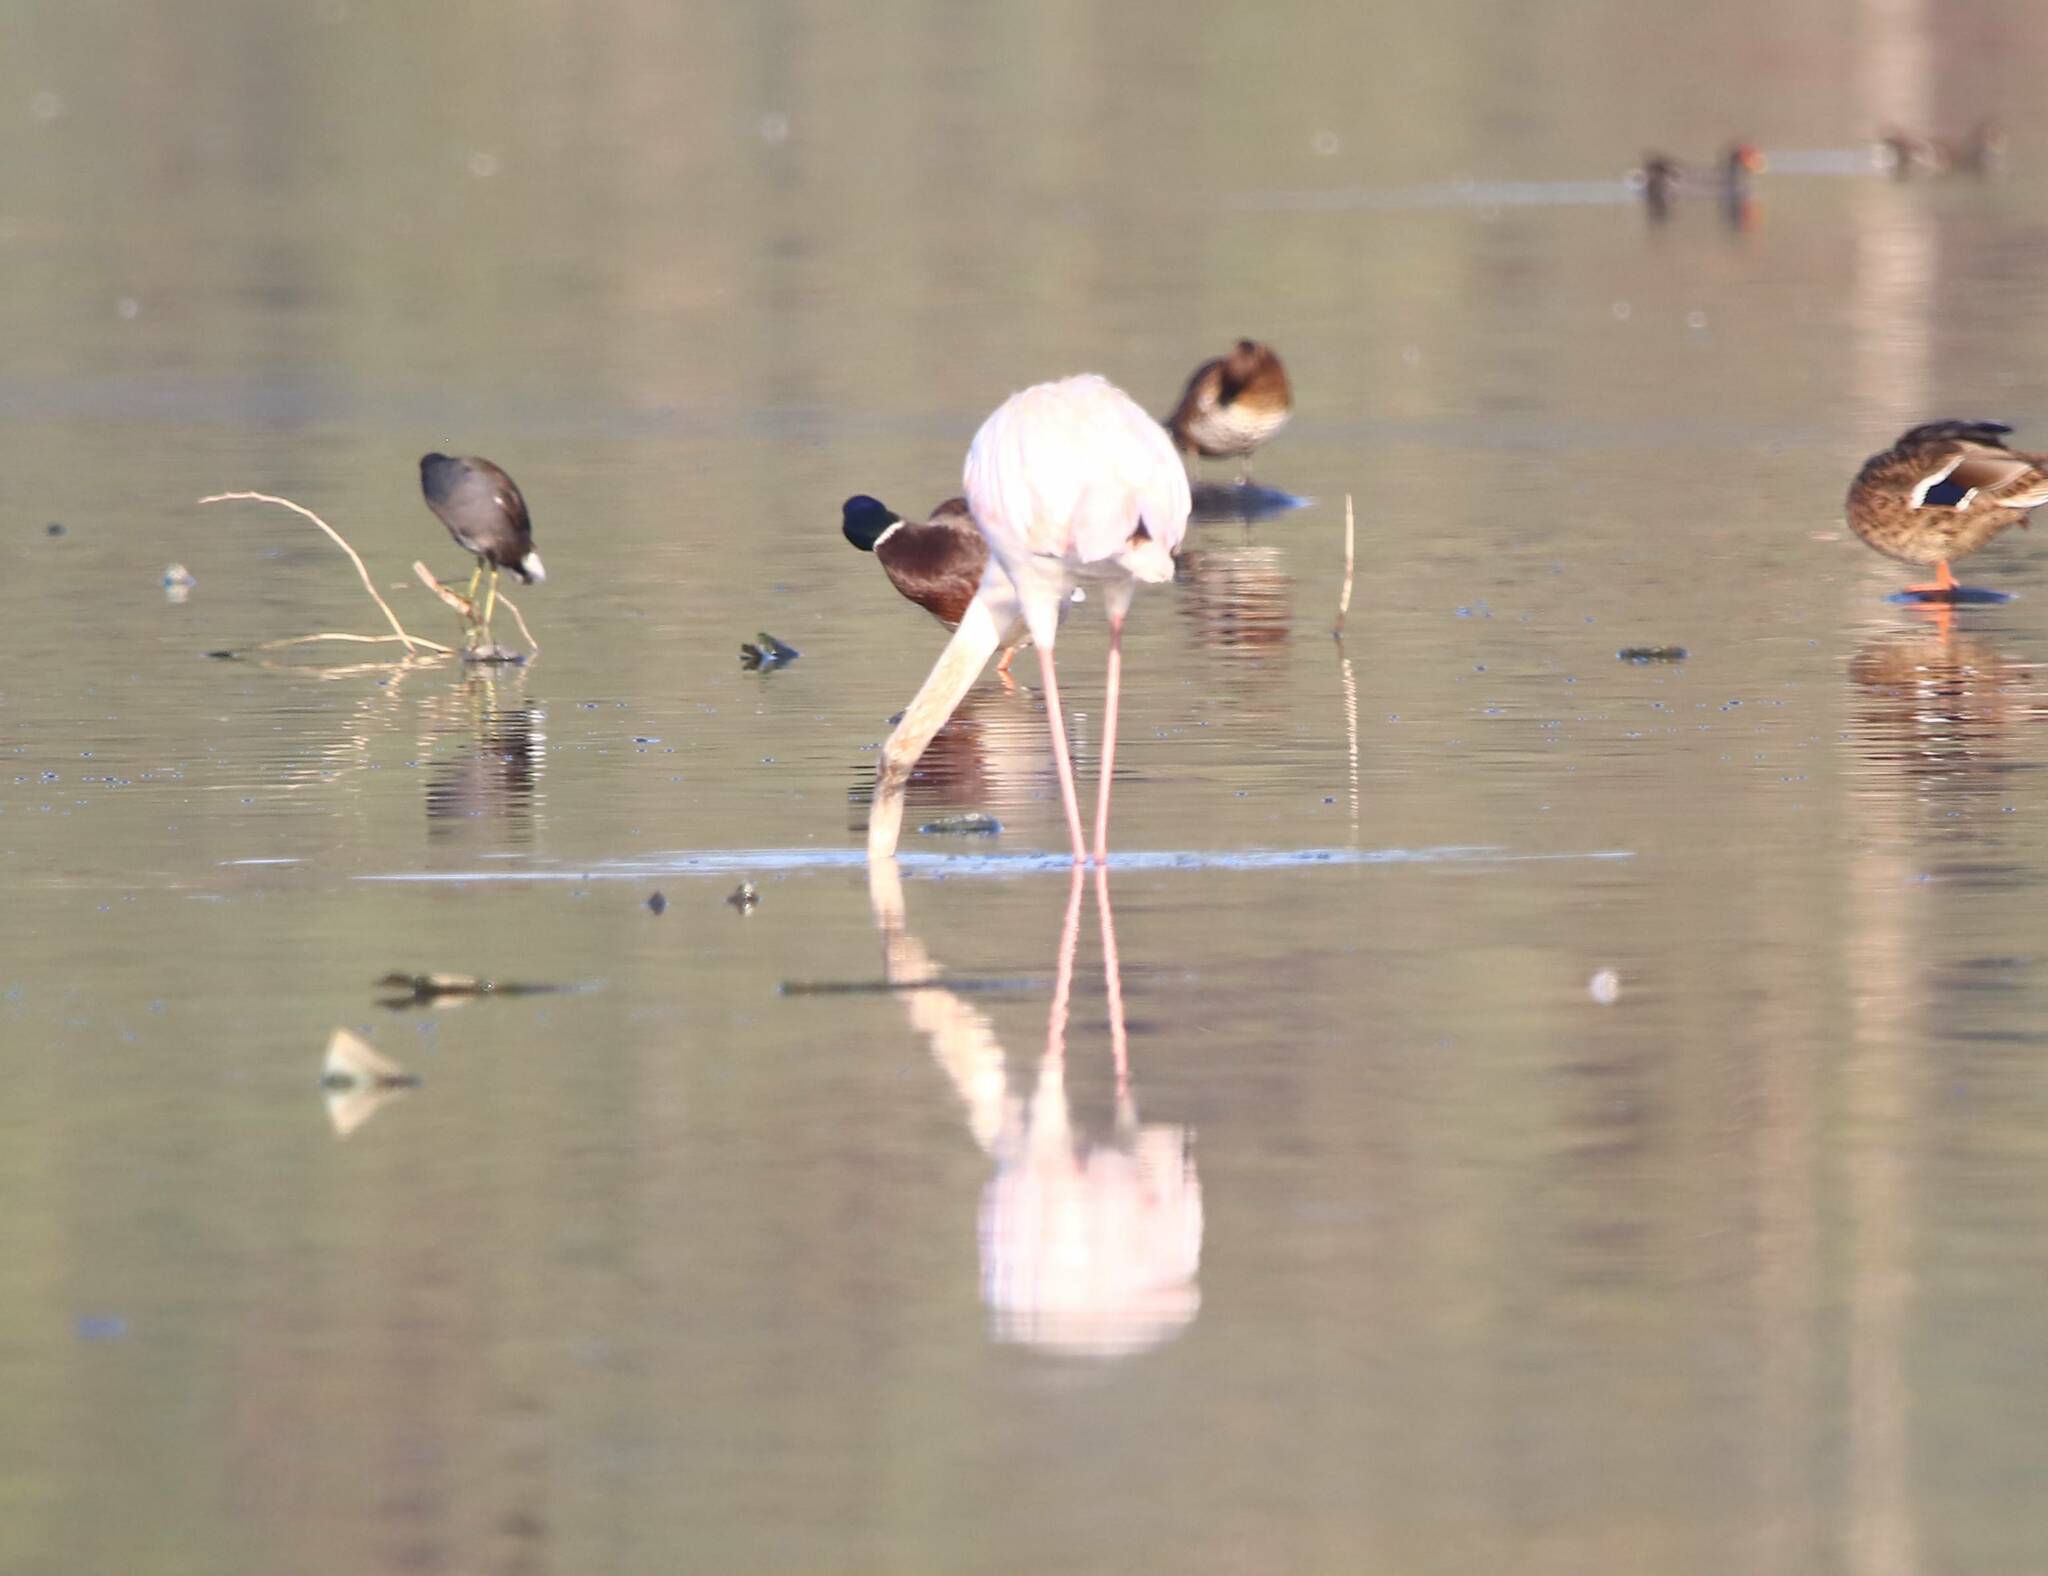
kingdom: Animalia
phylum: Chordata
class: Aves
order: Phoenicopteriformes
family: Phoenicopteridae
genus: Phoenicopterus
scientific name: Phoenicopterus roseus
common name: Greater flamingo
